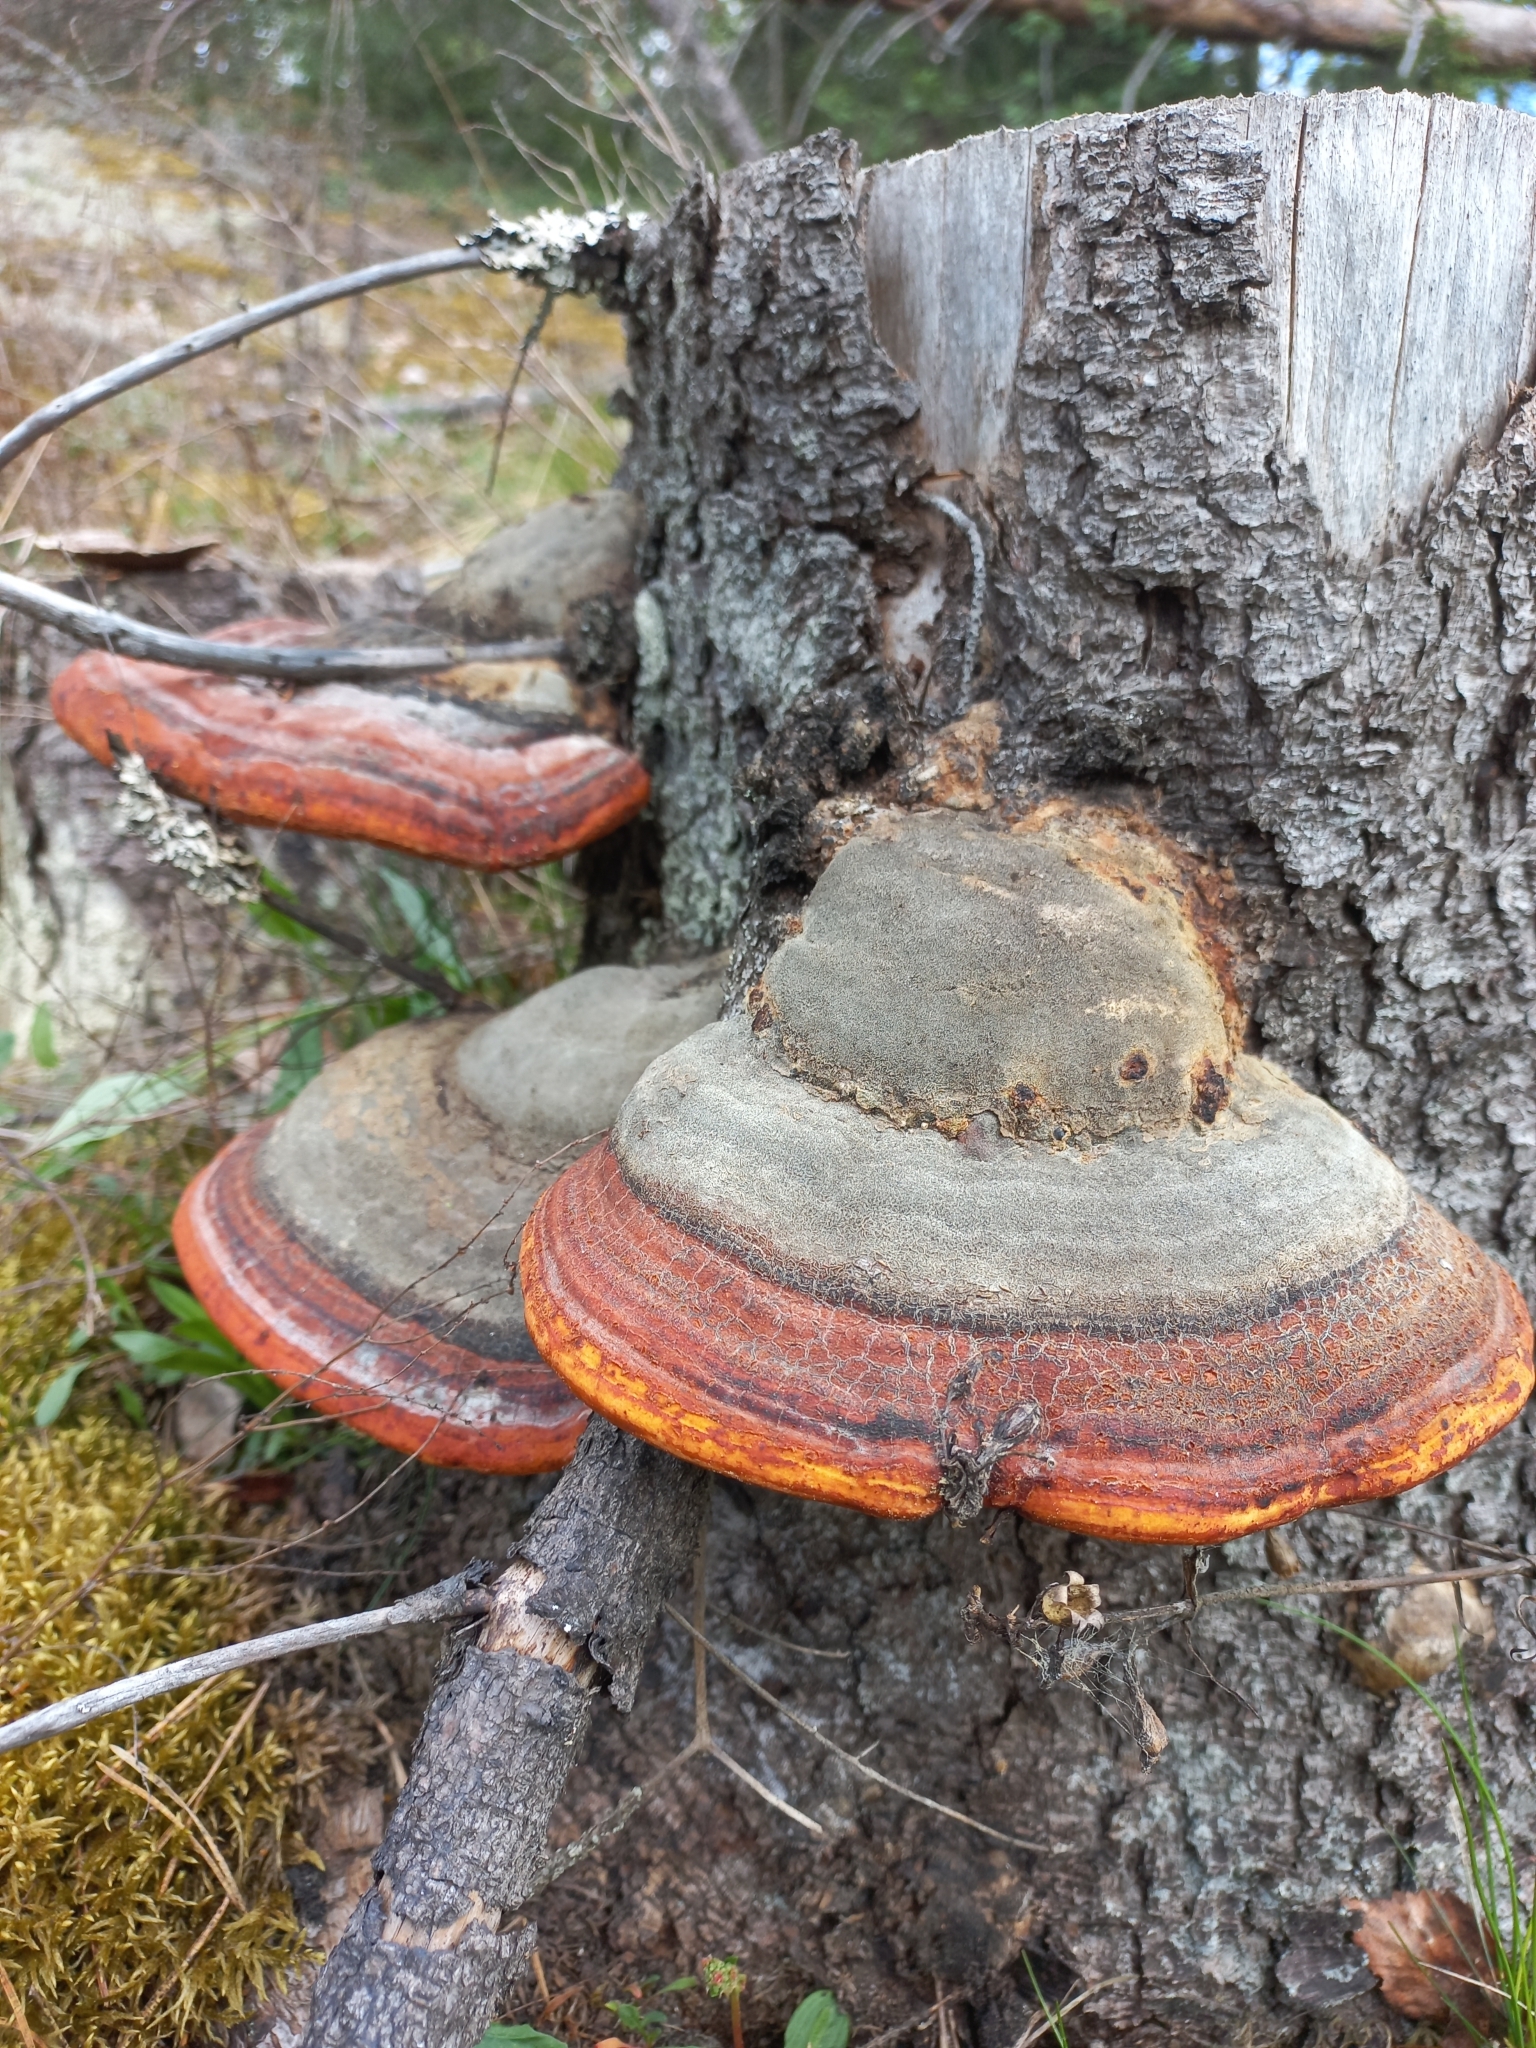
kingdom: Fungi
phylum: Basidiomycota
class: Agaricomycetes
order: Polyporales
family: Fomitopsidaceae
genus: Fomitopsis
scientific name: Fomitopsis pinicola
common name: Red-belted bracket
